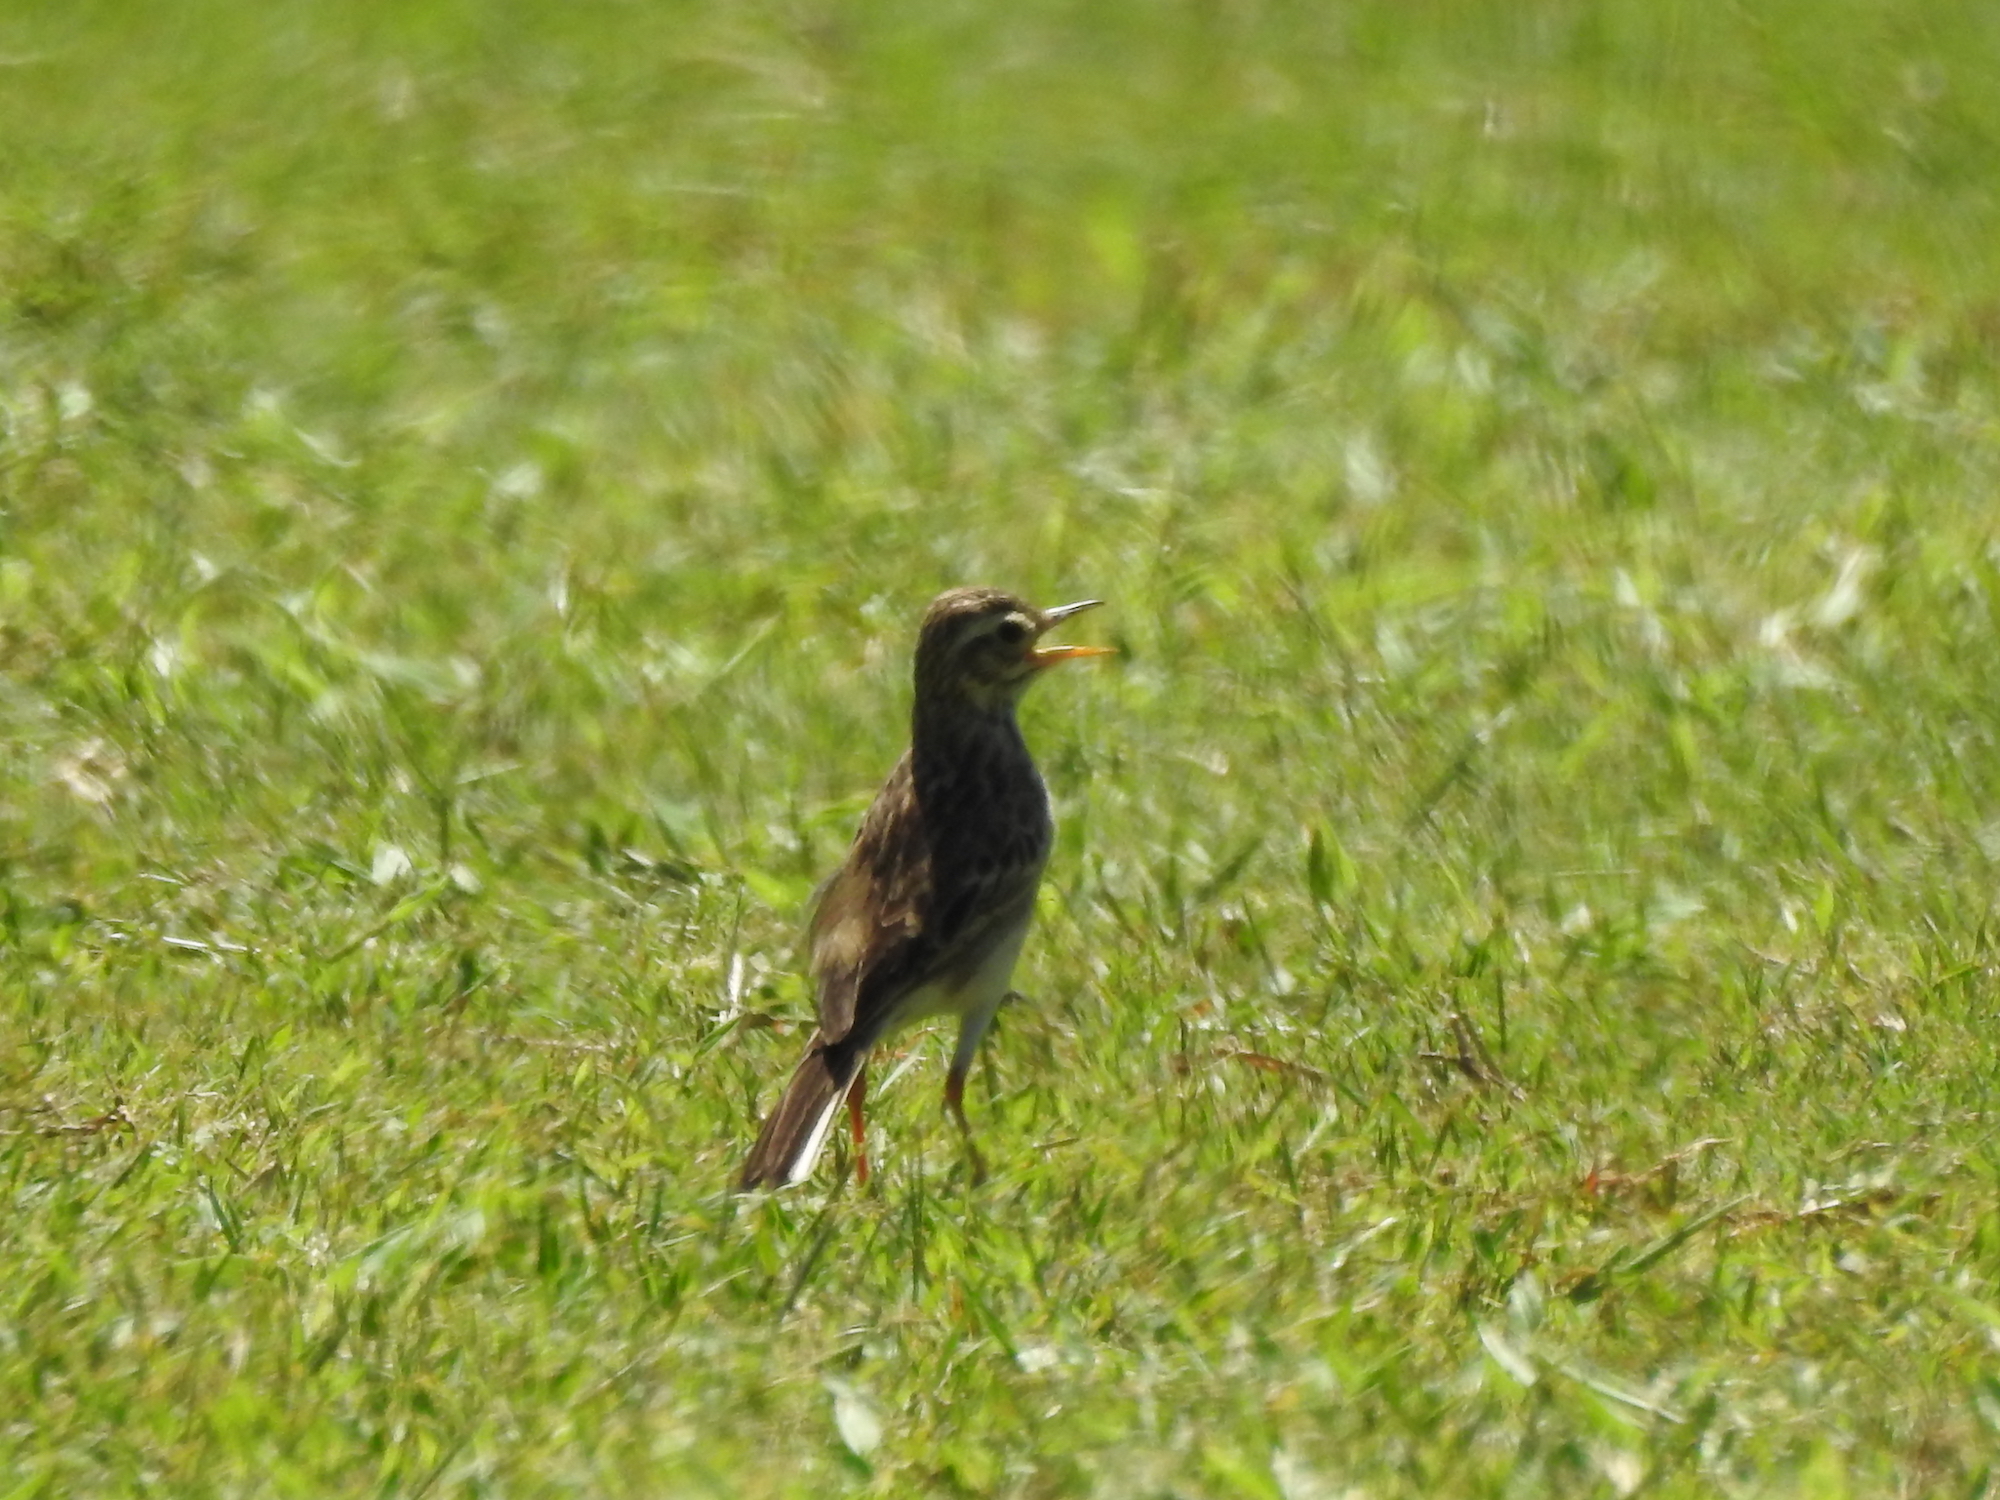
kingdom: Animalia
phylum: Chordata
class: Aves
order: Passeriformes
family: Motacillidae
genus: Anthus
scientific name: Anthus rufulus
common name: Paddyfield pipit
